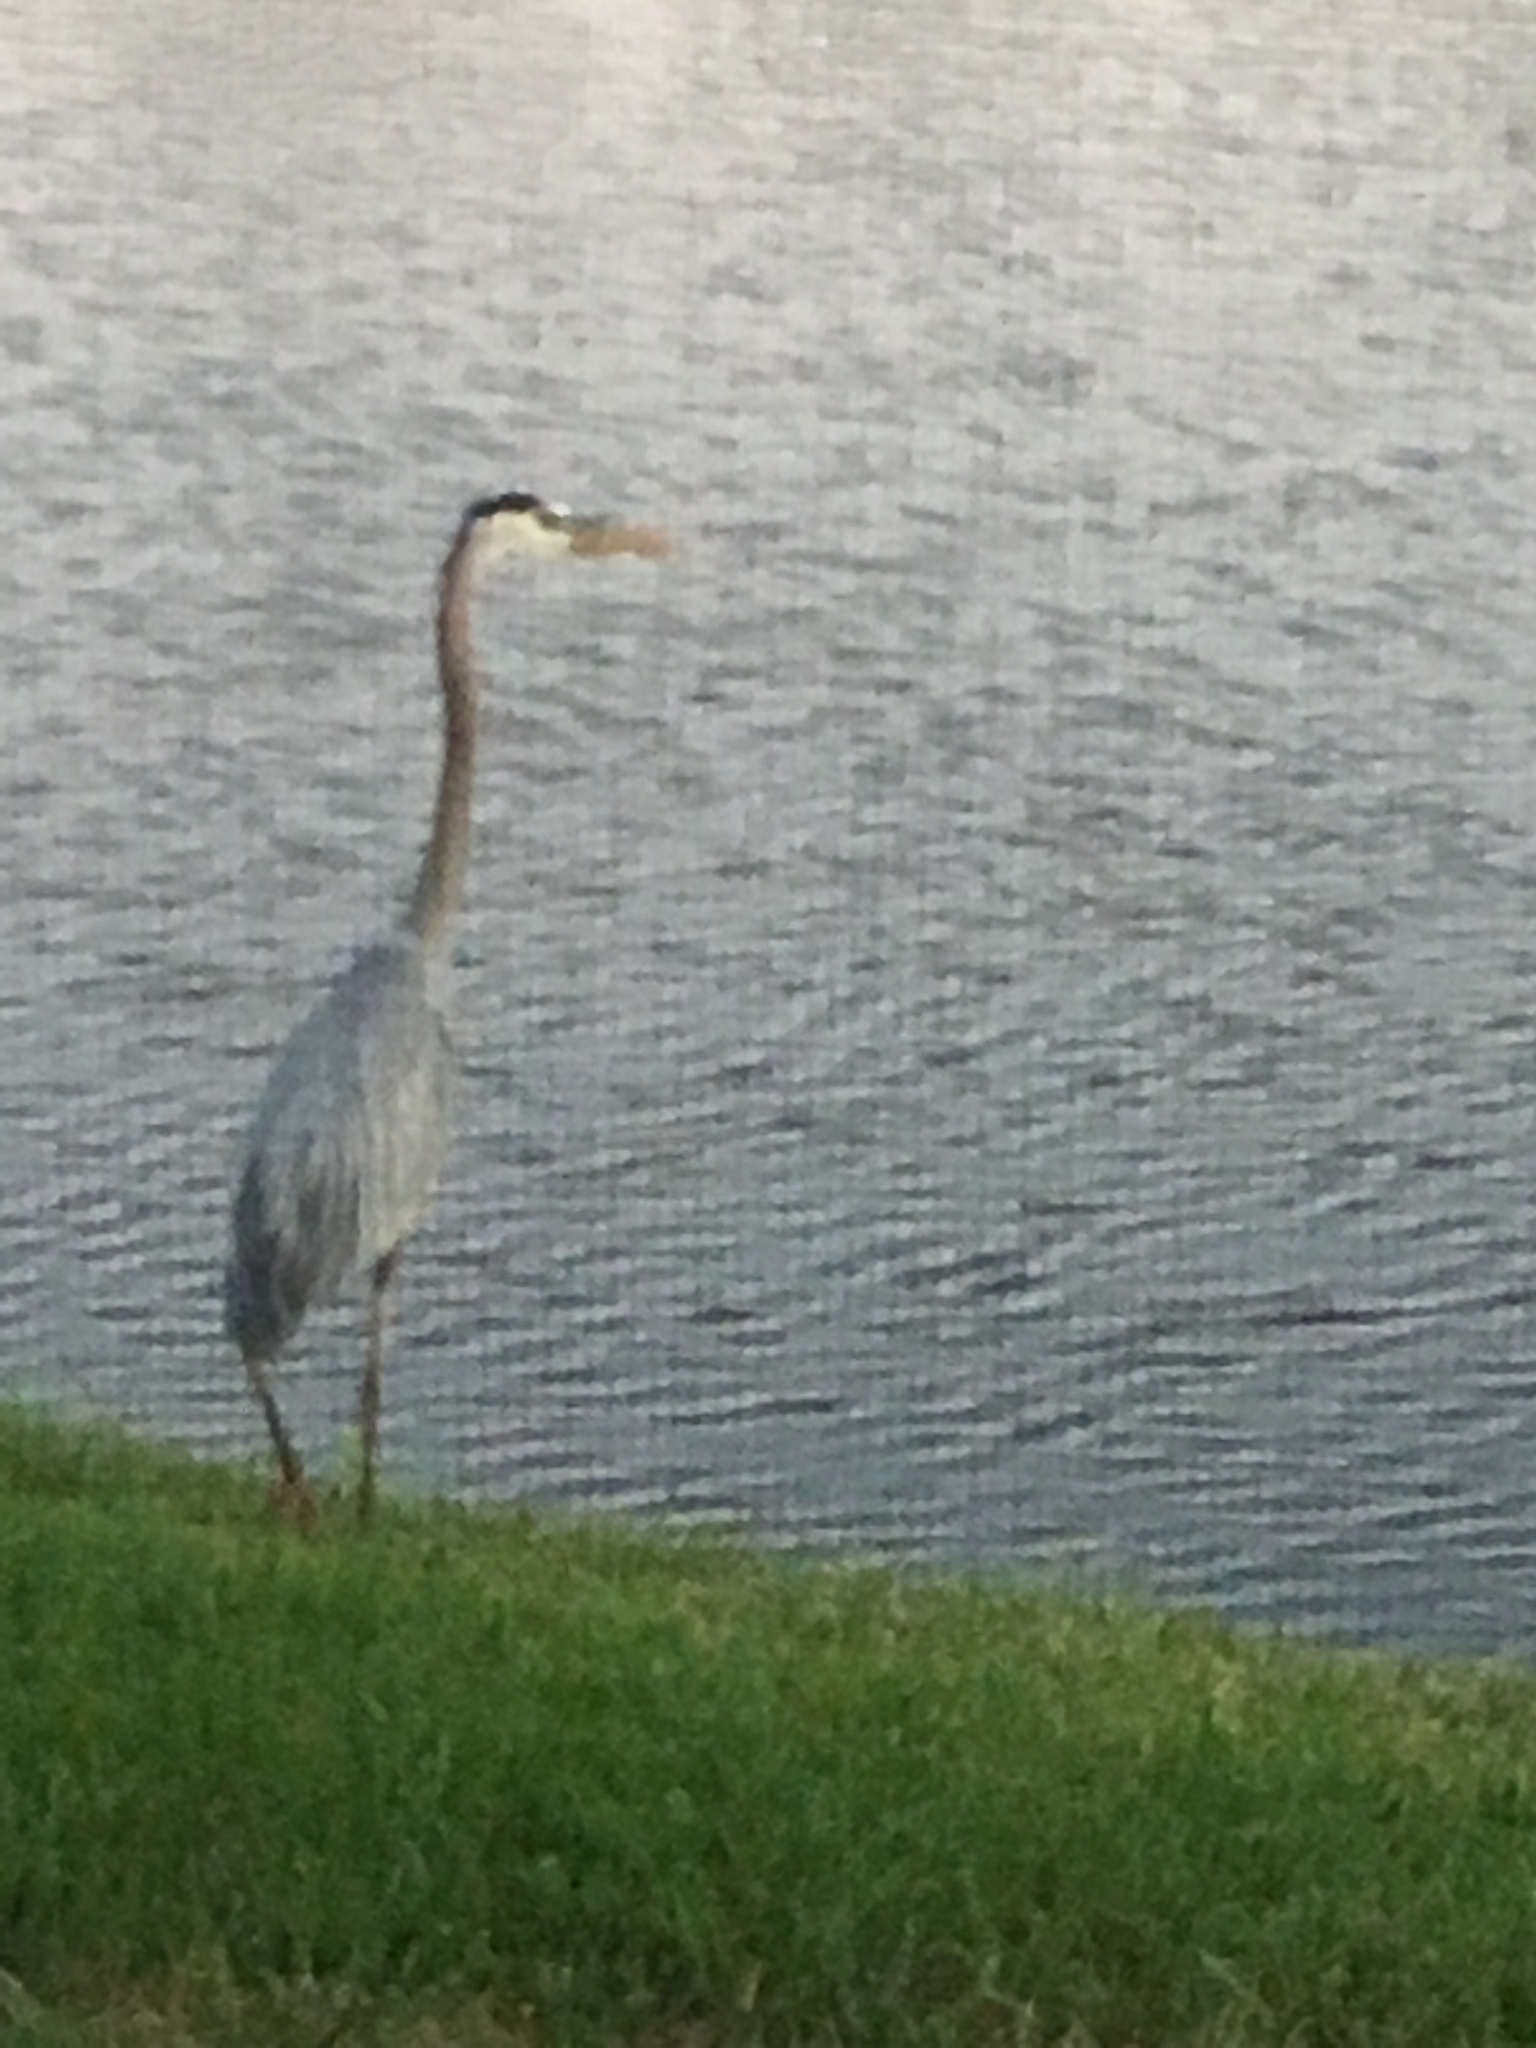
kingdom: Animalia
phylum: Chordata
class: Aves
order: Pelecaniformes
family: Ardeidae
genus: Ardea
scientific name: Ardea herodias
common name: Great blue heron
